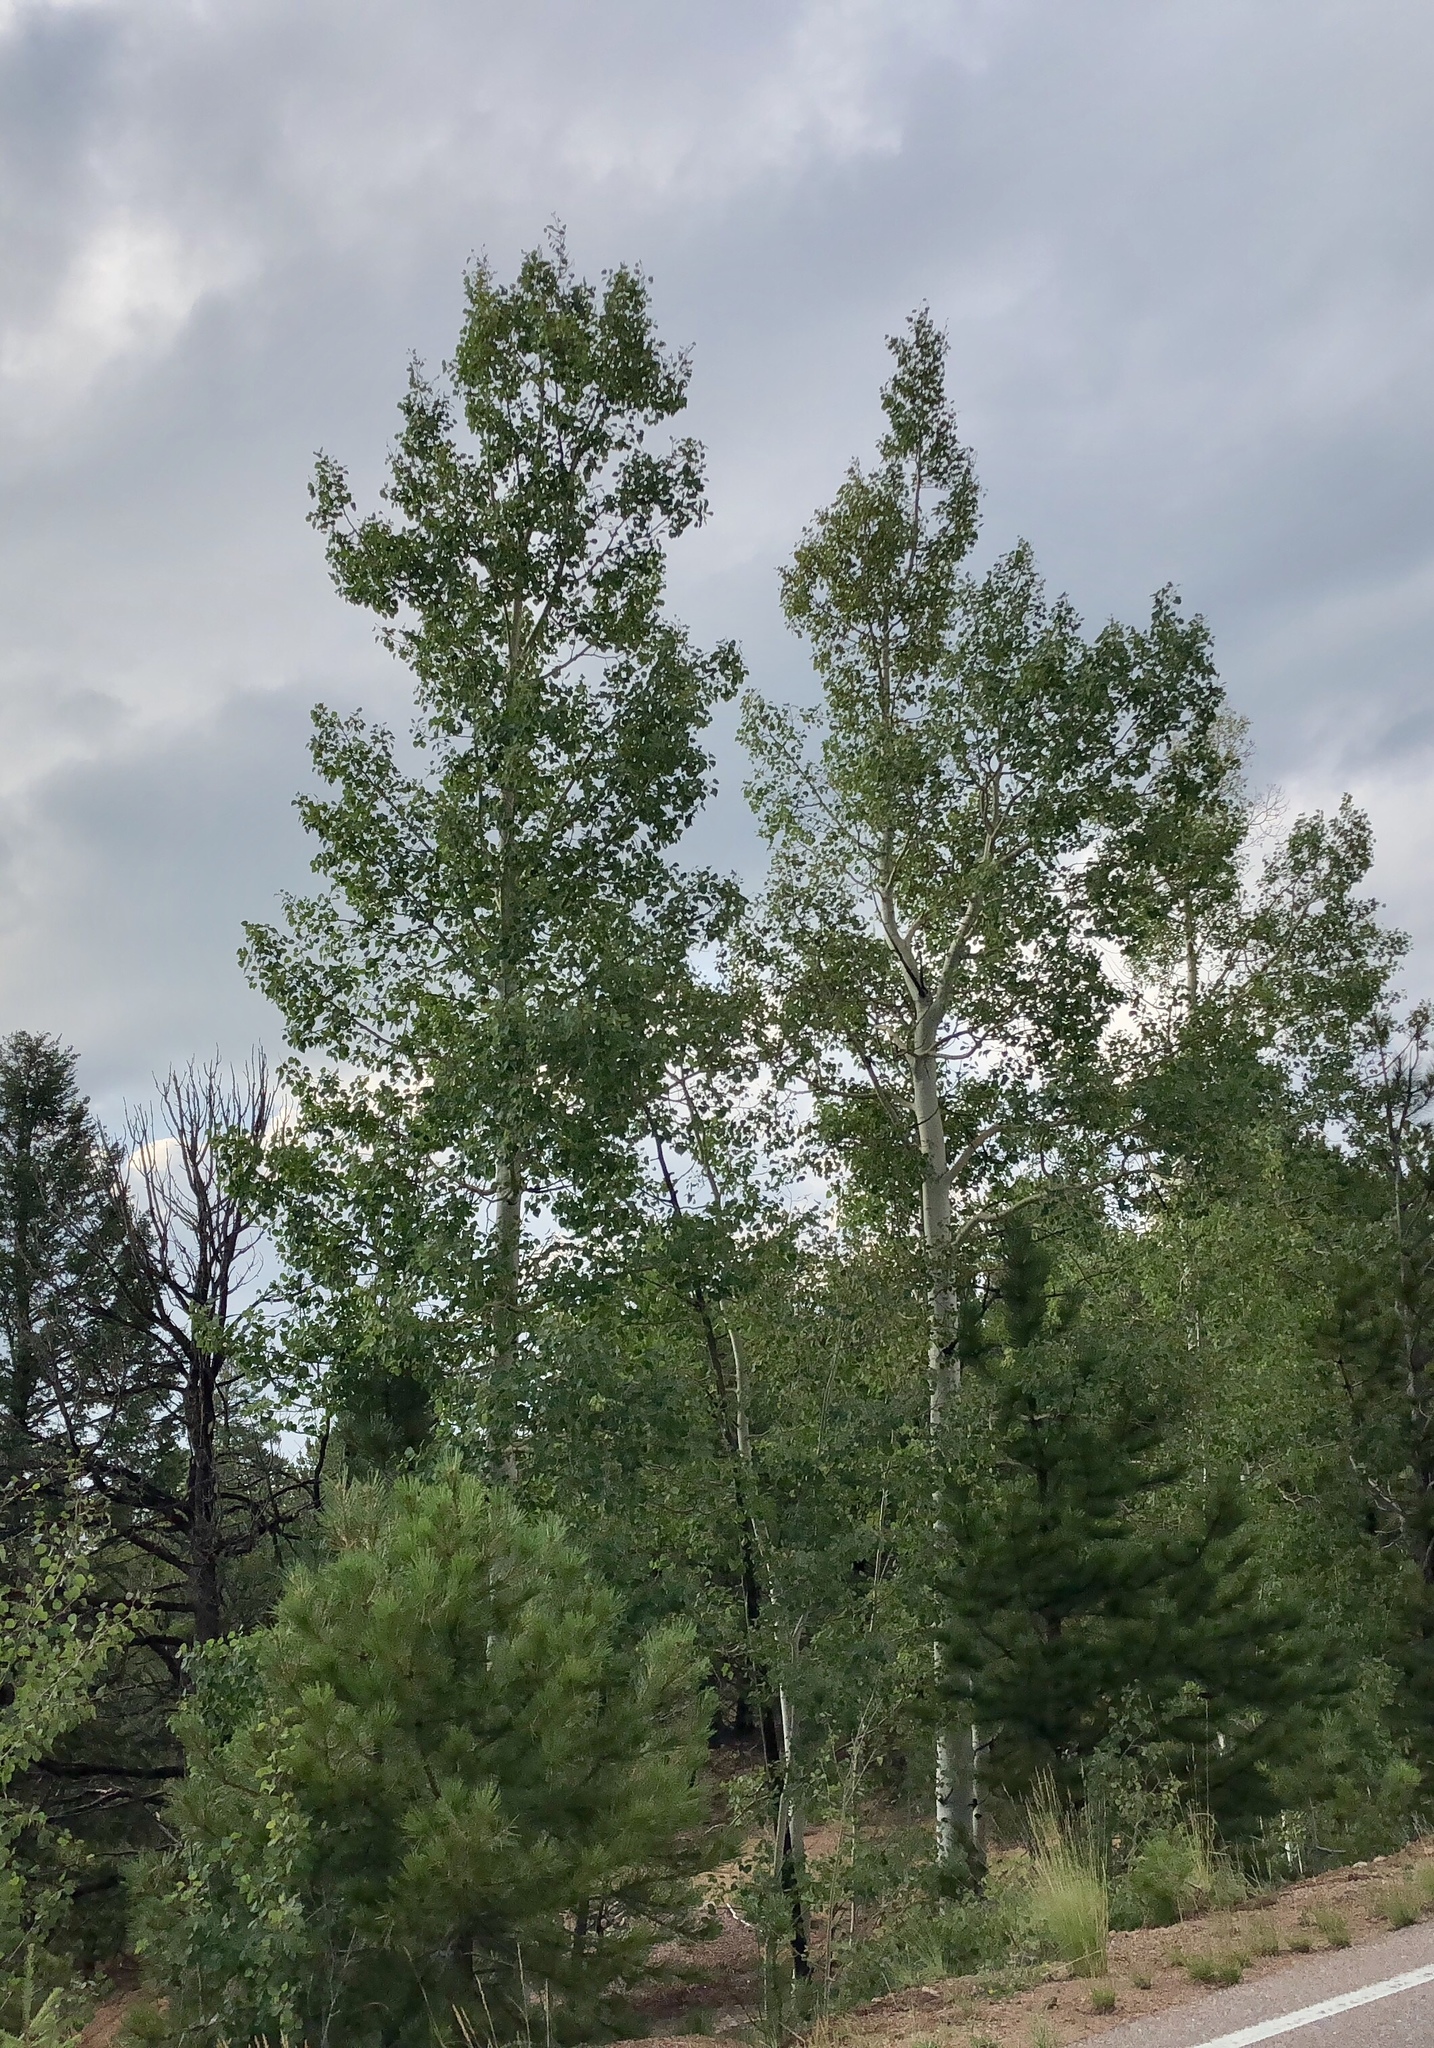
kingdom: Plantae
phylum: Tracheophyta
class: Magnoliopsida
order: Malpighiales
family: Salicaceae
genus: Populus
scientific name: Populus tremuloides
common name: Quaking aspen
